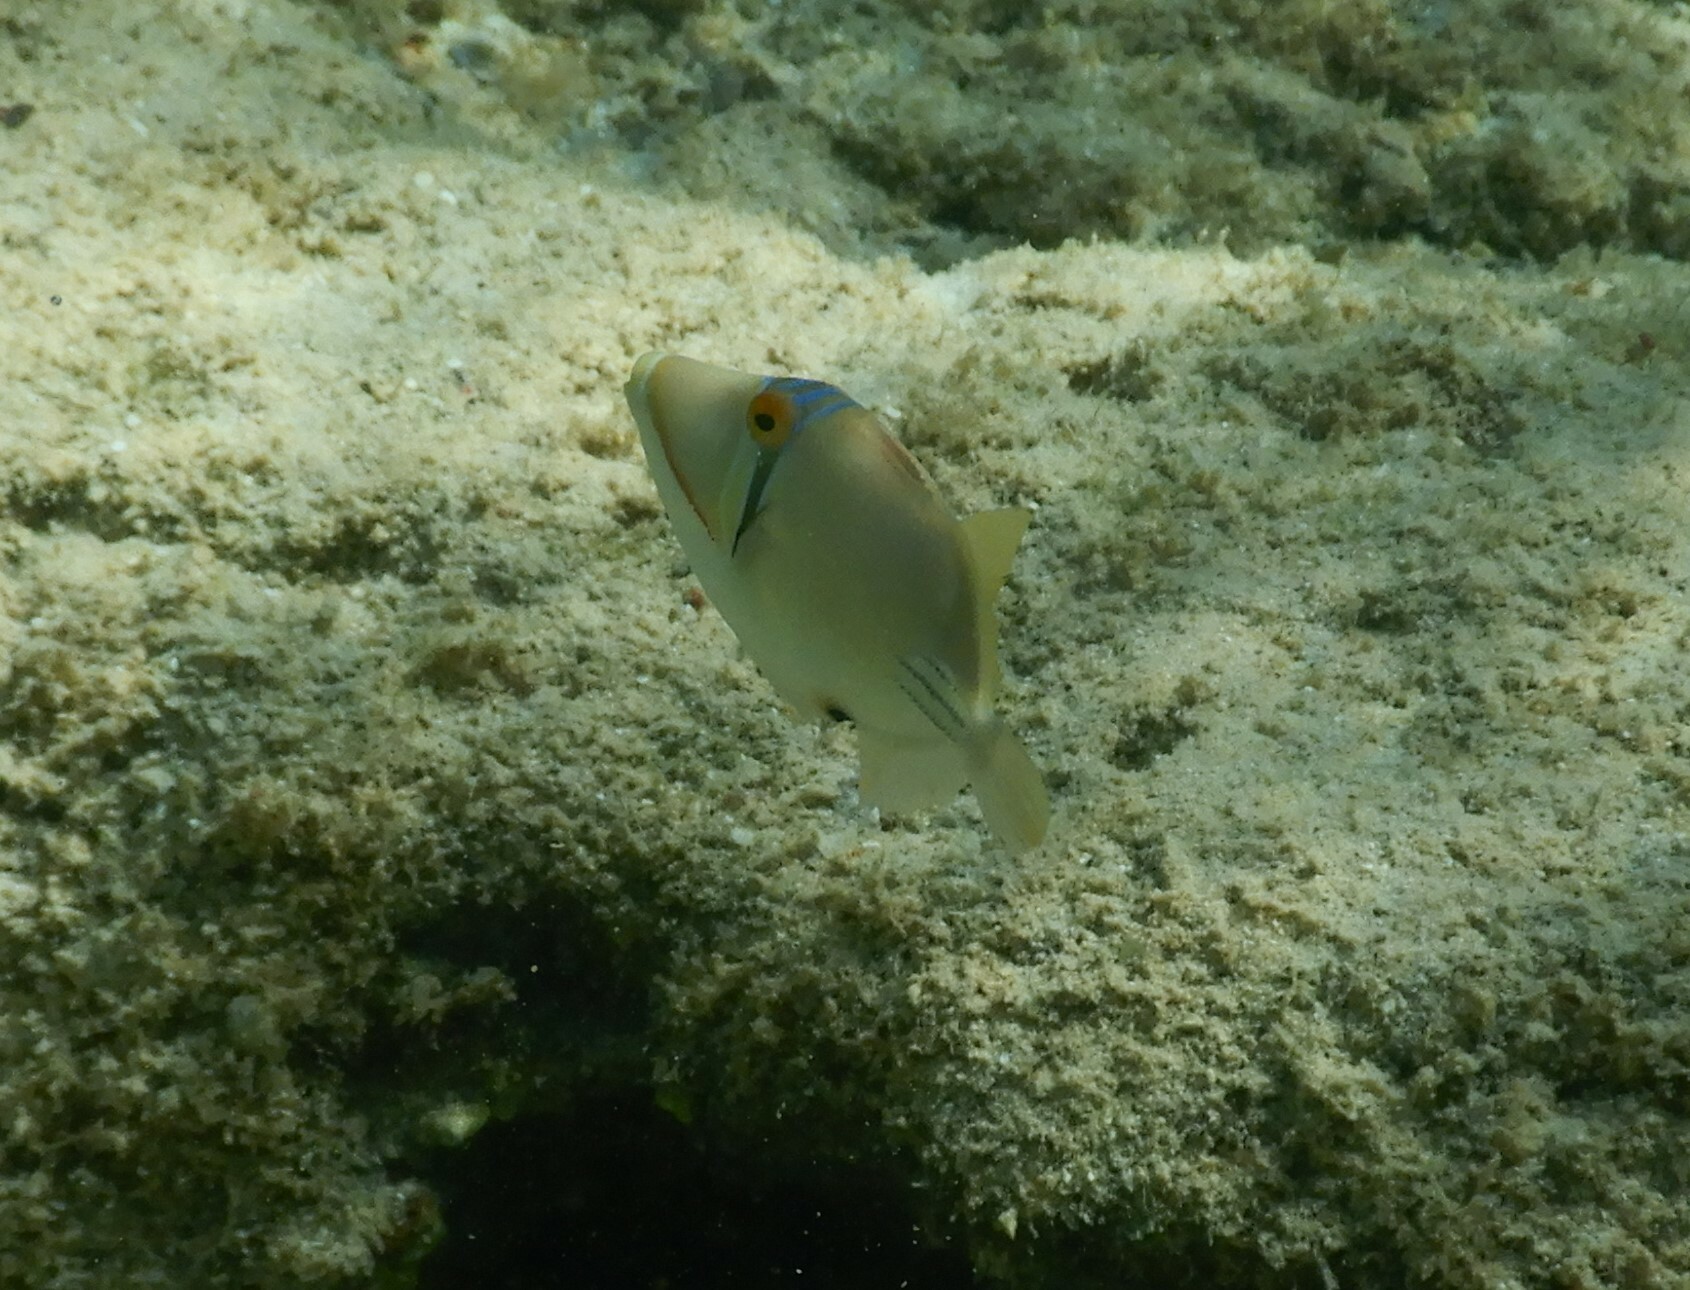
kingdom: Animalia
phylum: Chordata
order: Tetraodontiformes
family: Balistidae
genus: Rhinecanthus
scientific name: Rhinecanthus assasi
